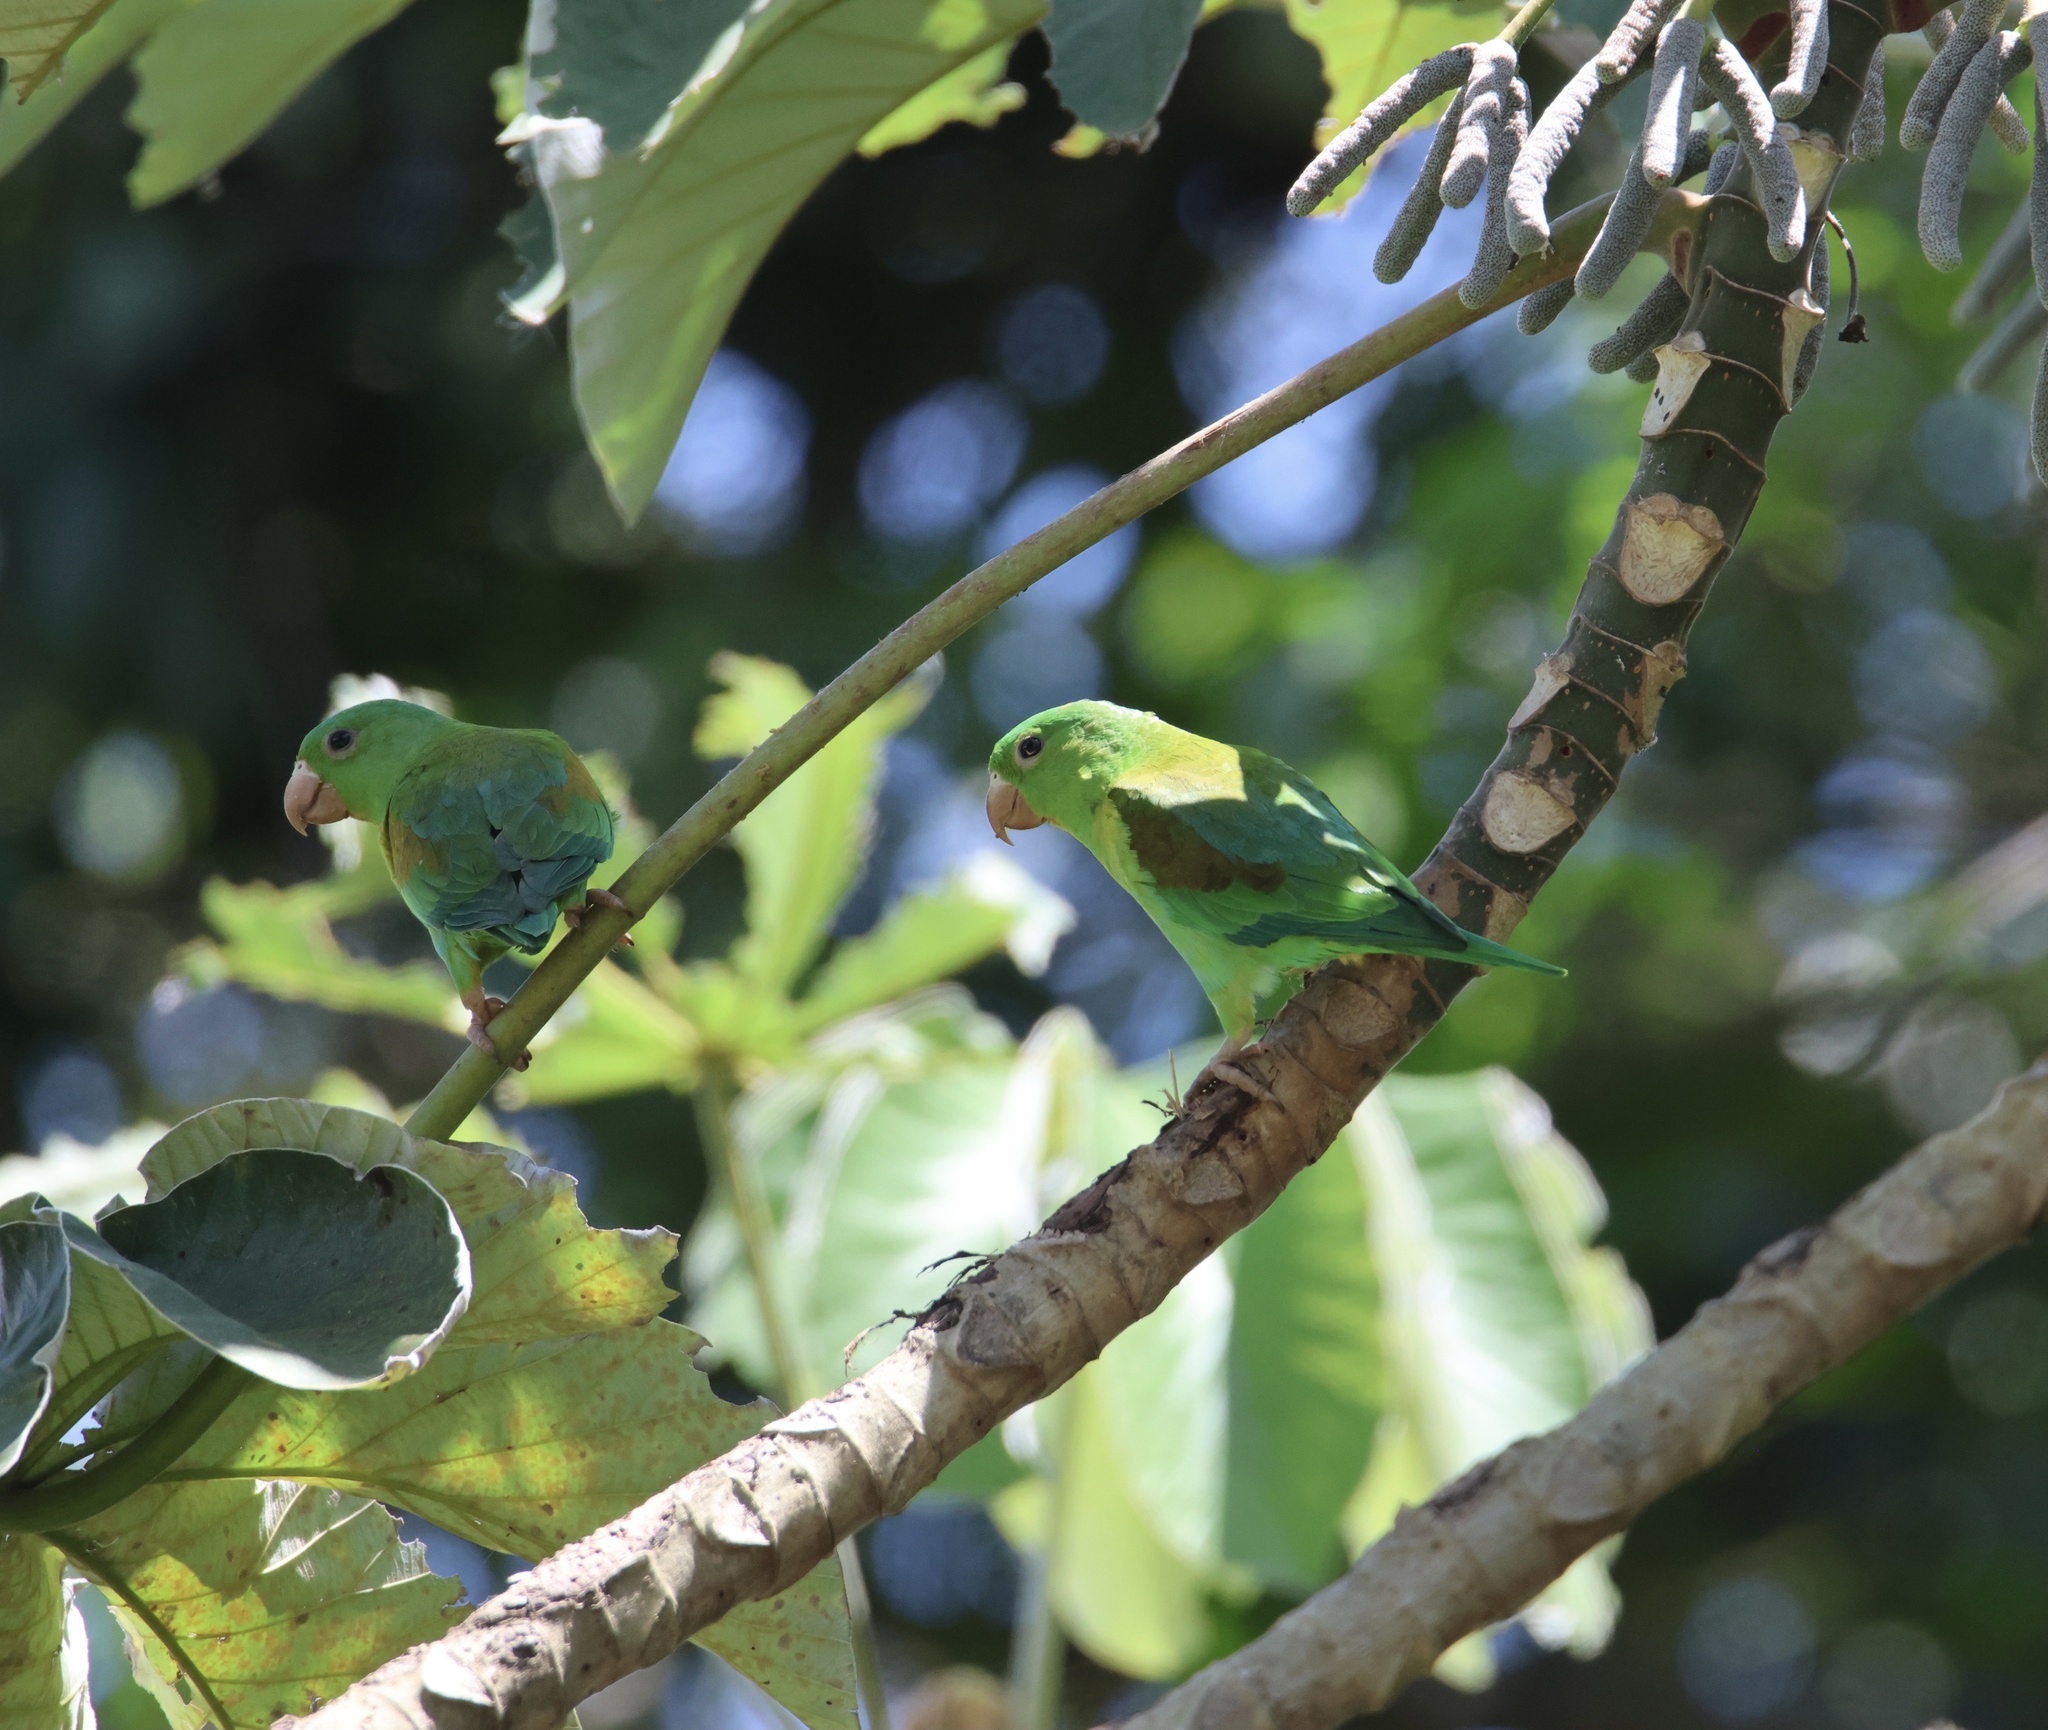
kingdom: Animalia
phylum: Chordata
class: Aves
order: Psittaciformes
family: Psittacidae
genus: Brotogeris
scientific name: Brotogeris jugularis
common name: Orange-chinned parakeet
